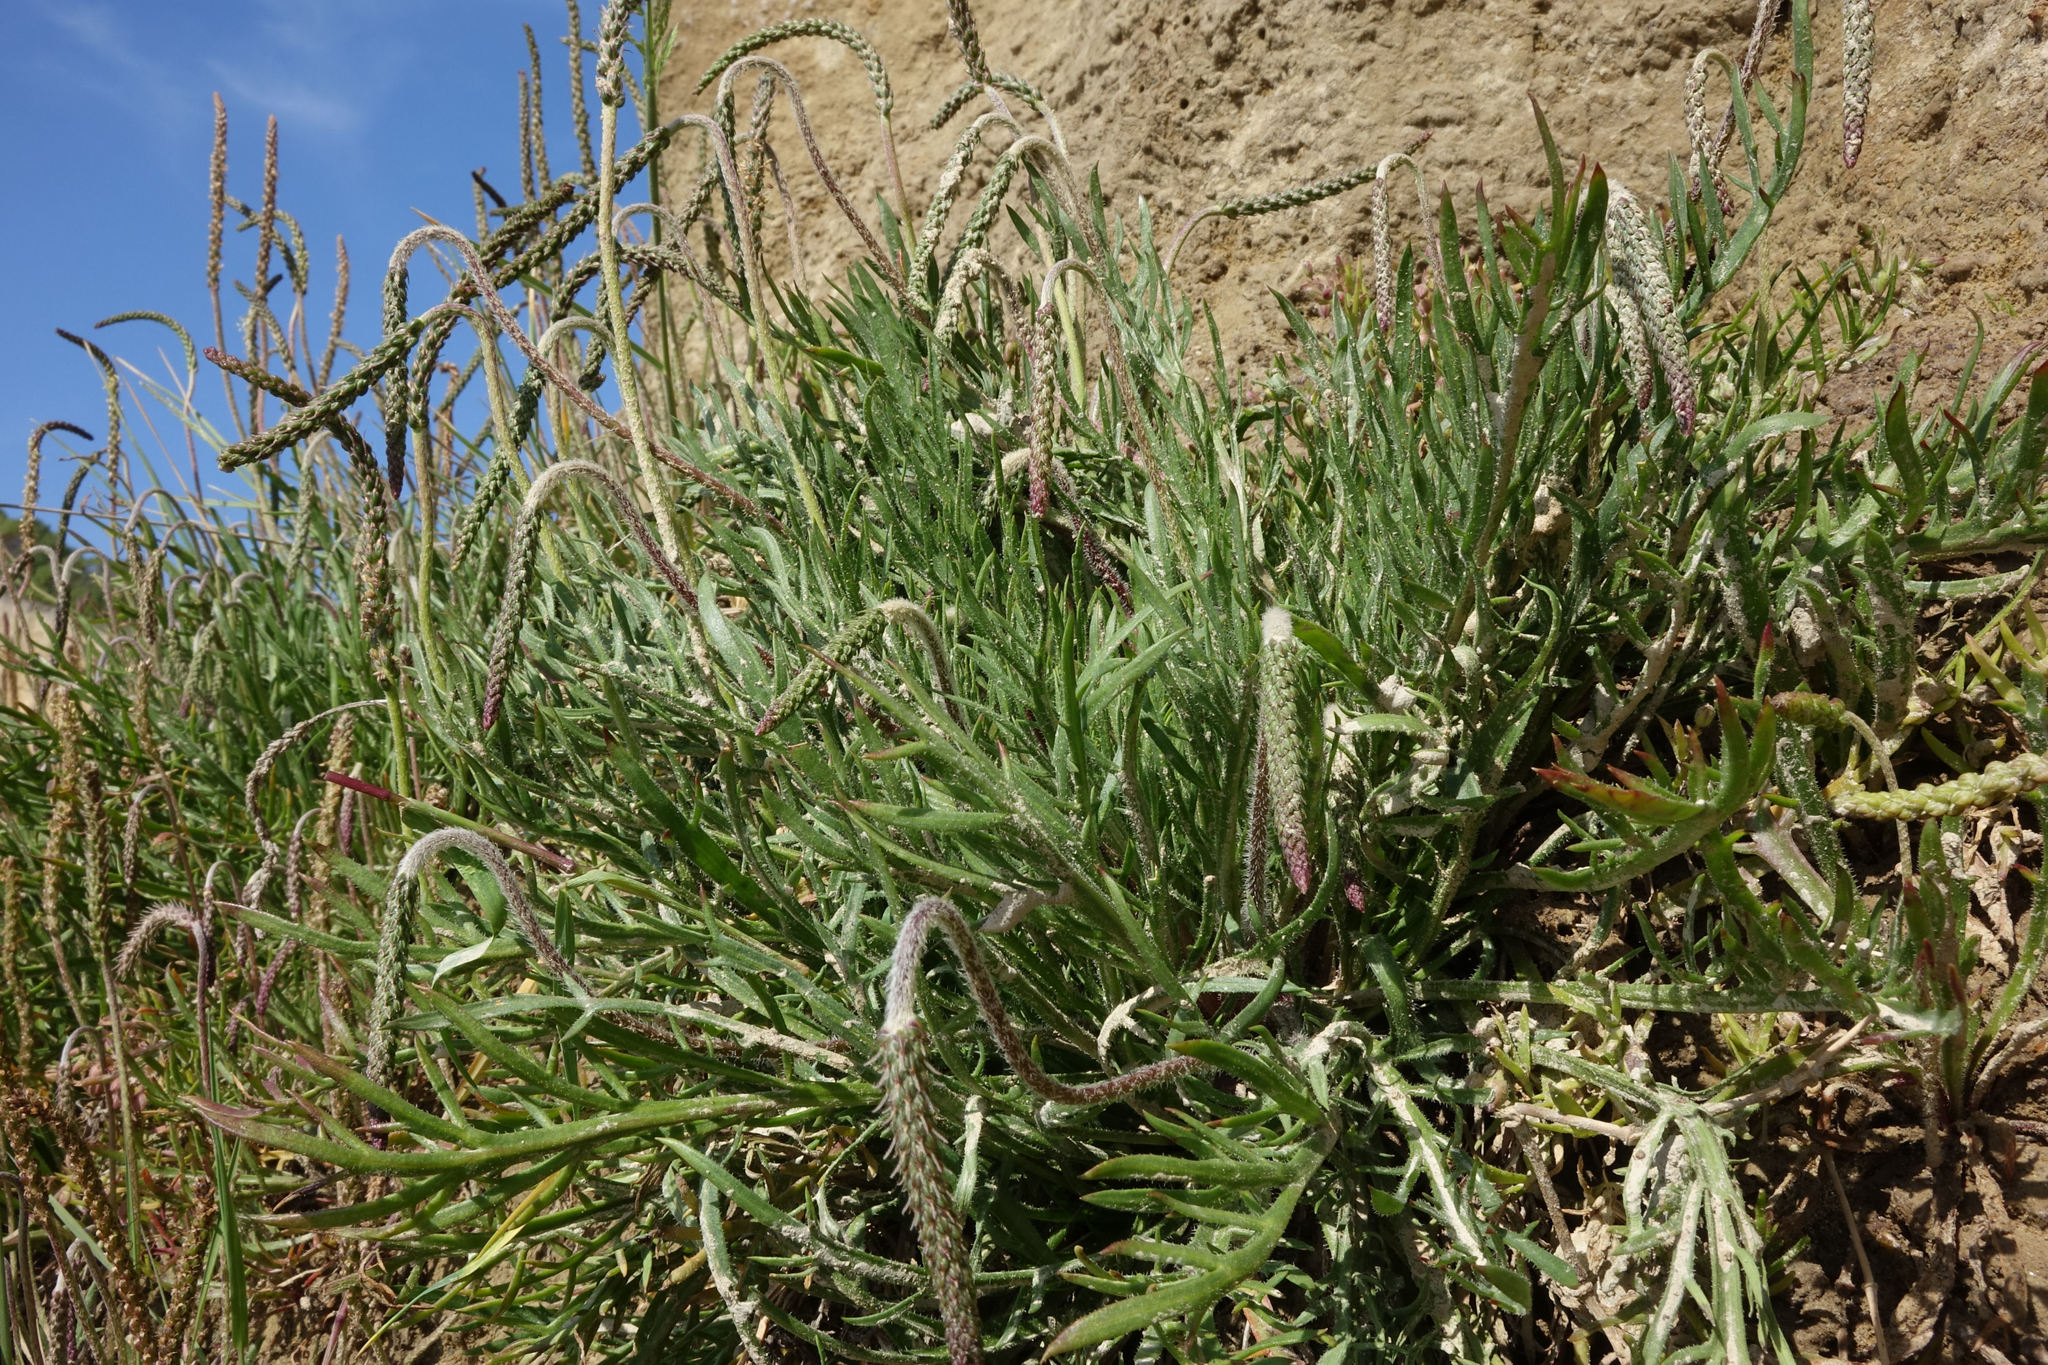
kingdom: Plantae
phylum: Tracheophyta
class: Magnoliopsida
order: Lamiales
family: Plantaginaceae
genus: Plantago
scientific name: Plantago coronopus
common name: Buck's-horn plantain
